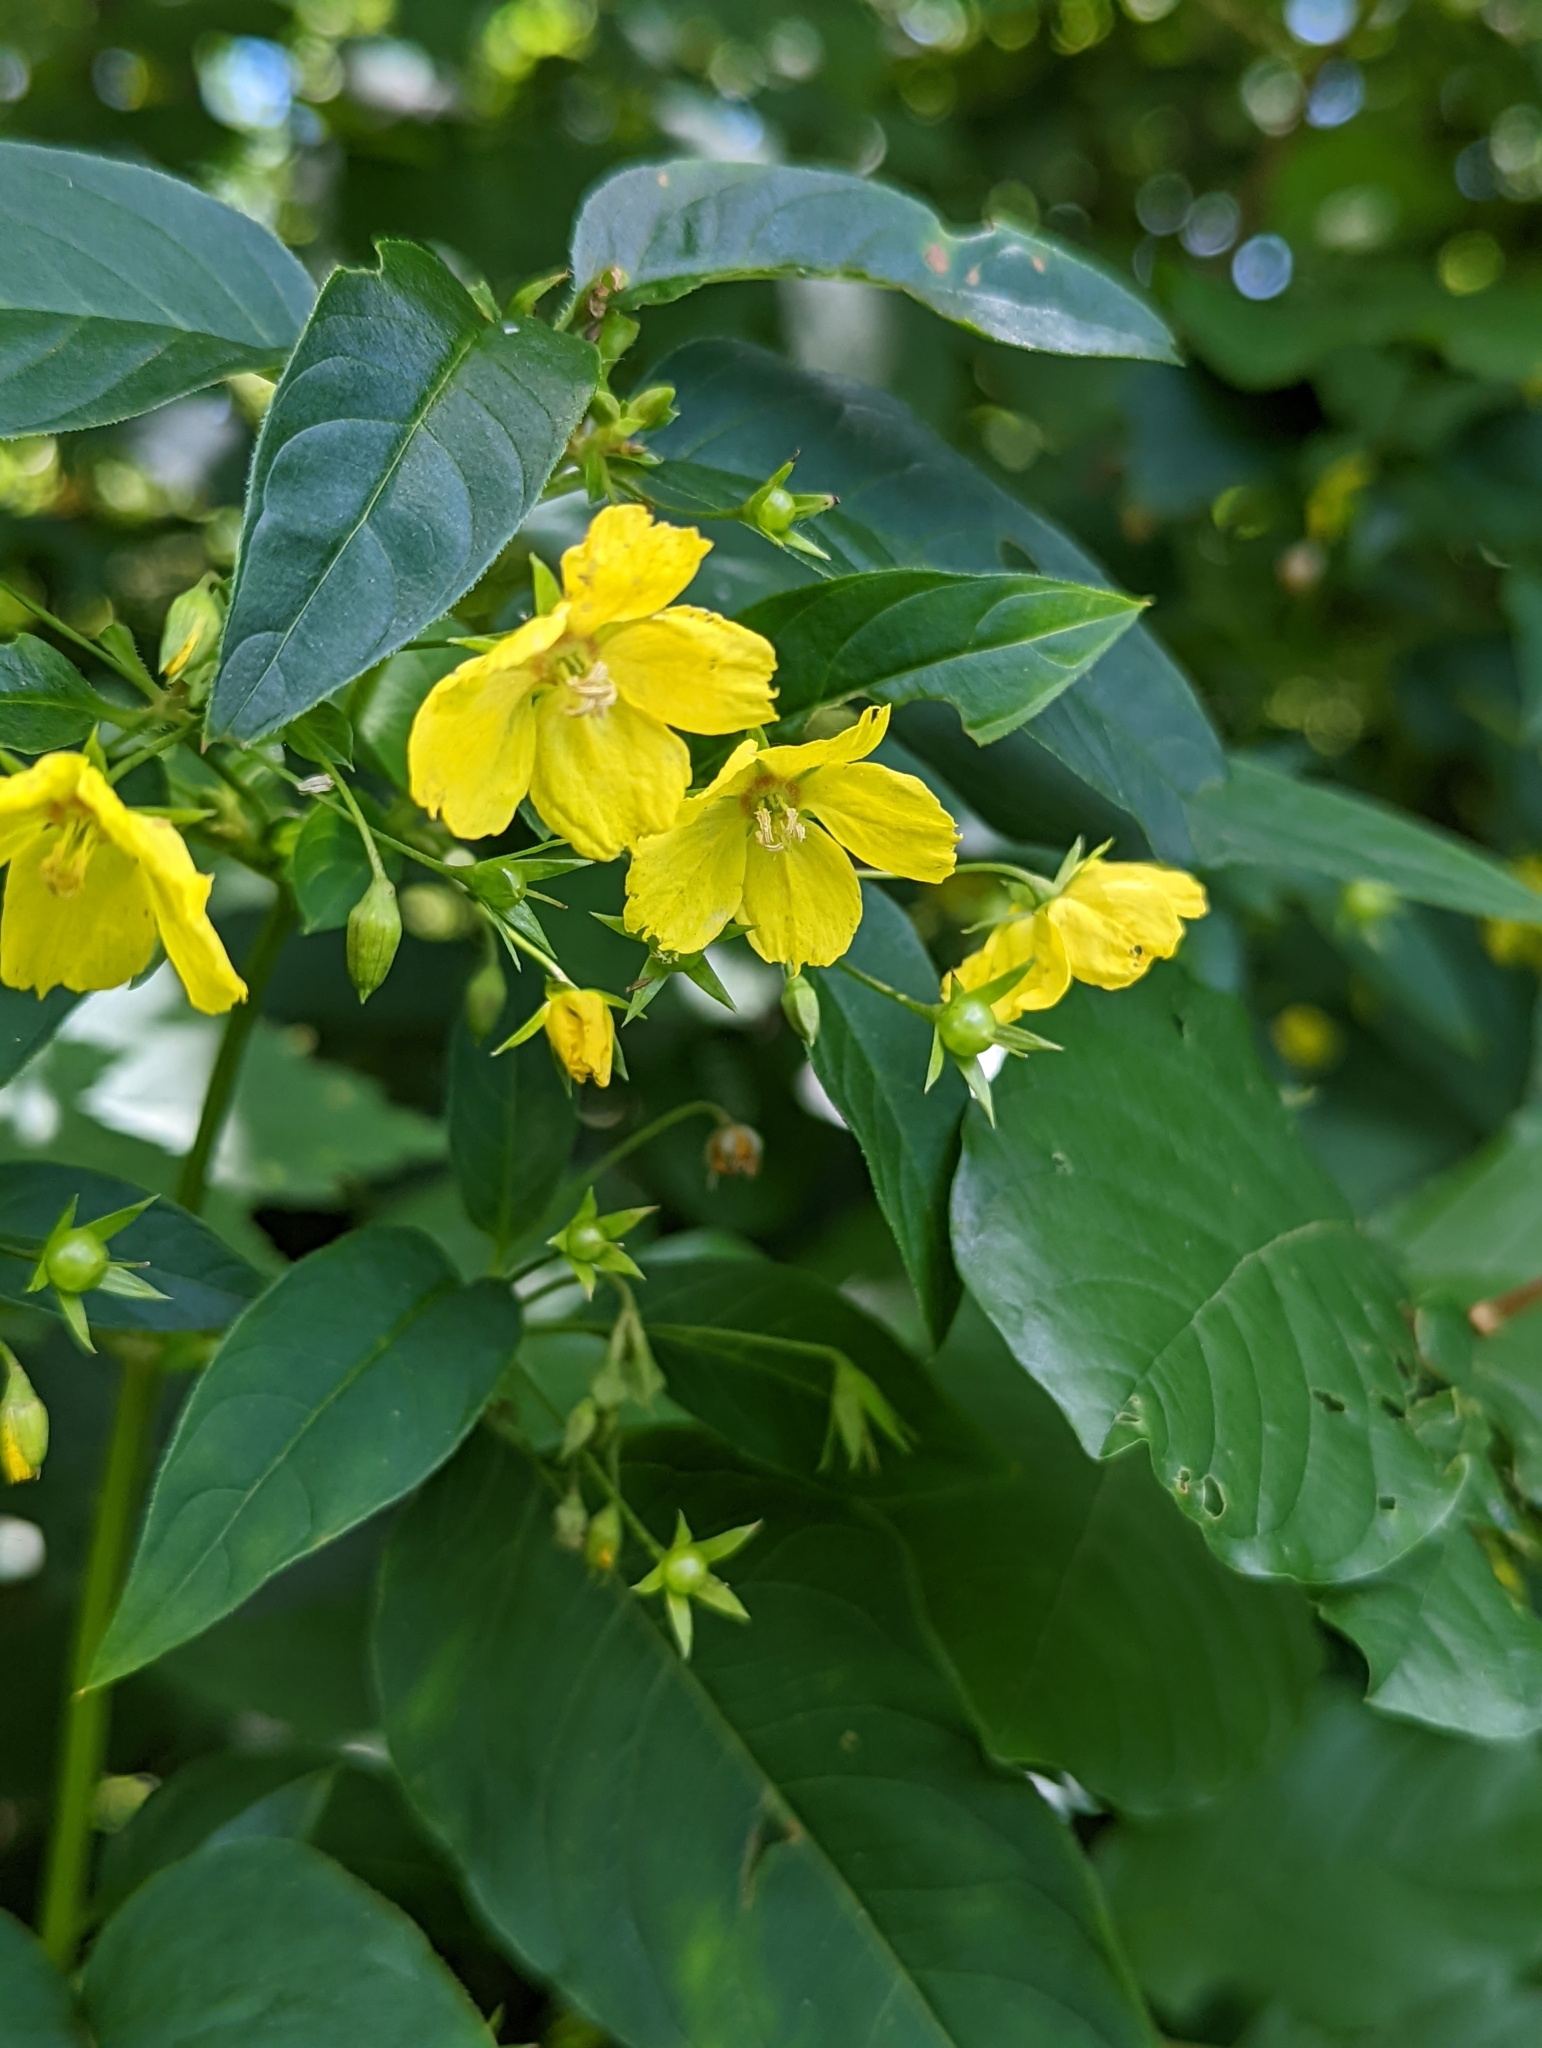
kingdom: Plantae
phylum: Tracheophyta
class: Magnoliopsida
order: Ericales
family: Primulaceae
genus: Lysimachia
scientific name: Lysimachia ciliata
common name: Fringed loosestrife
